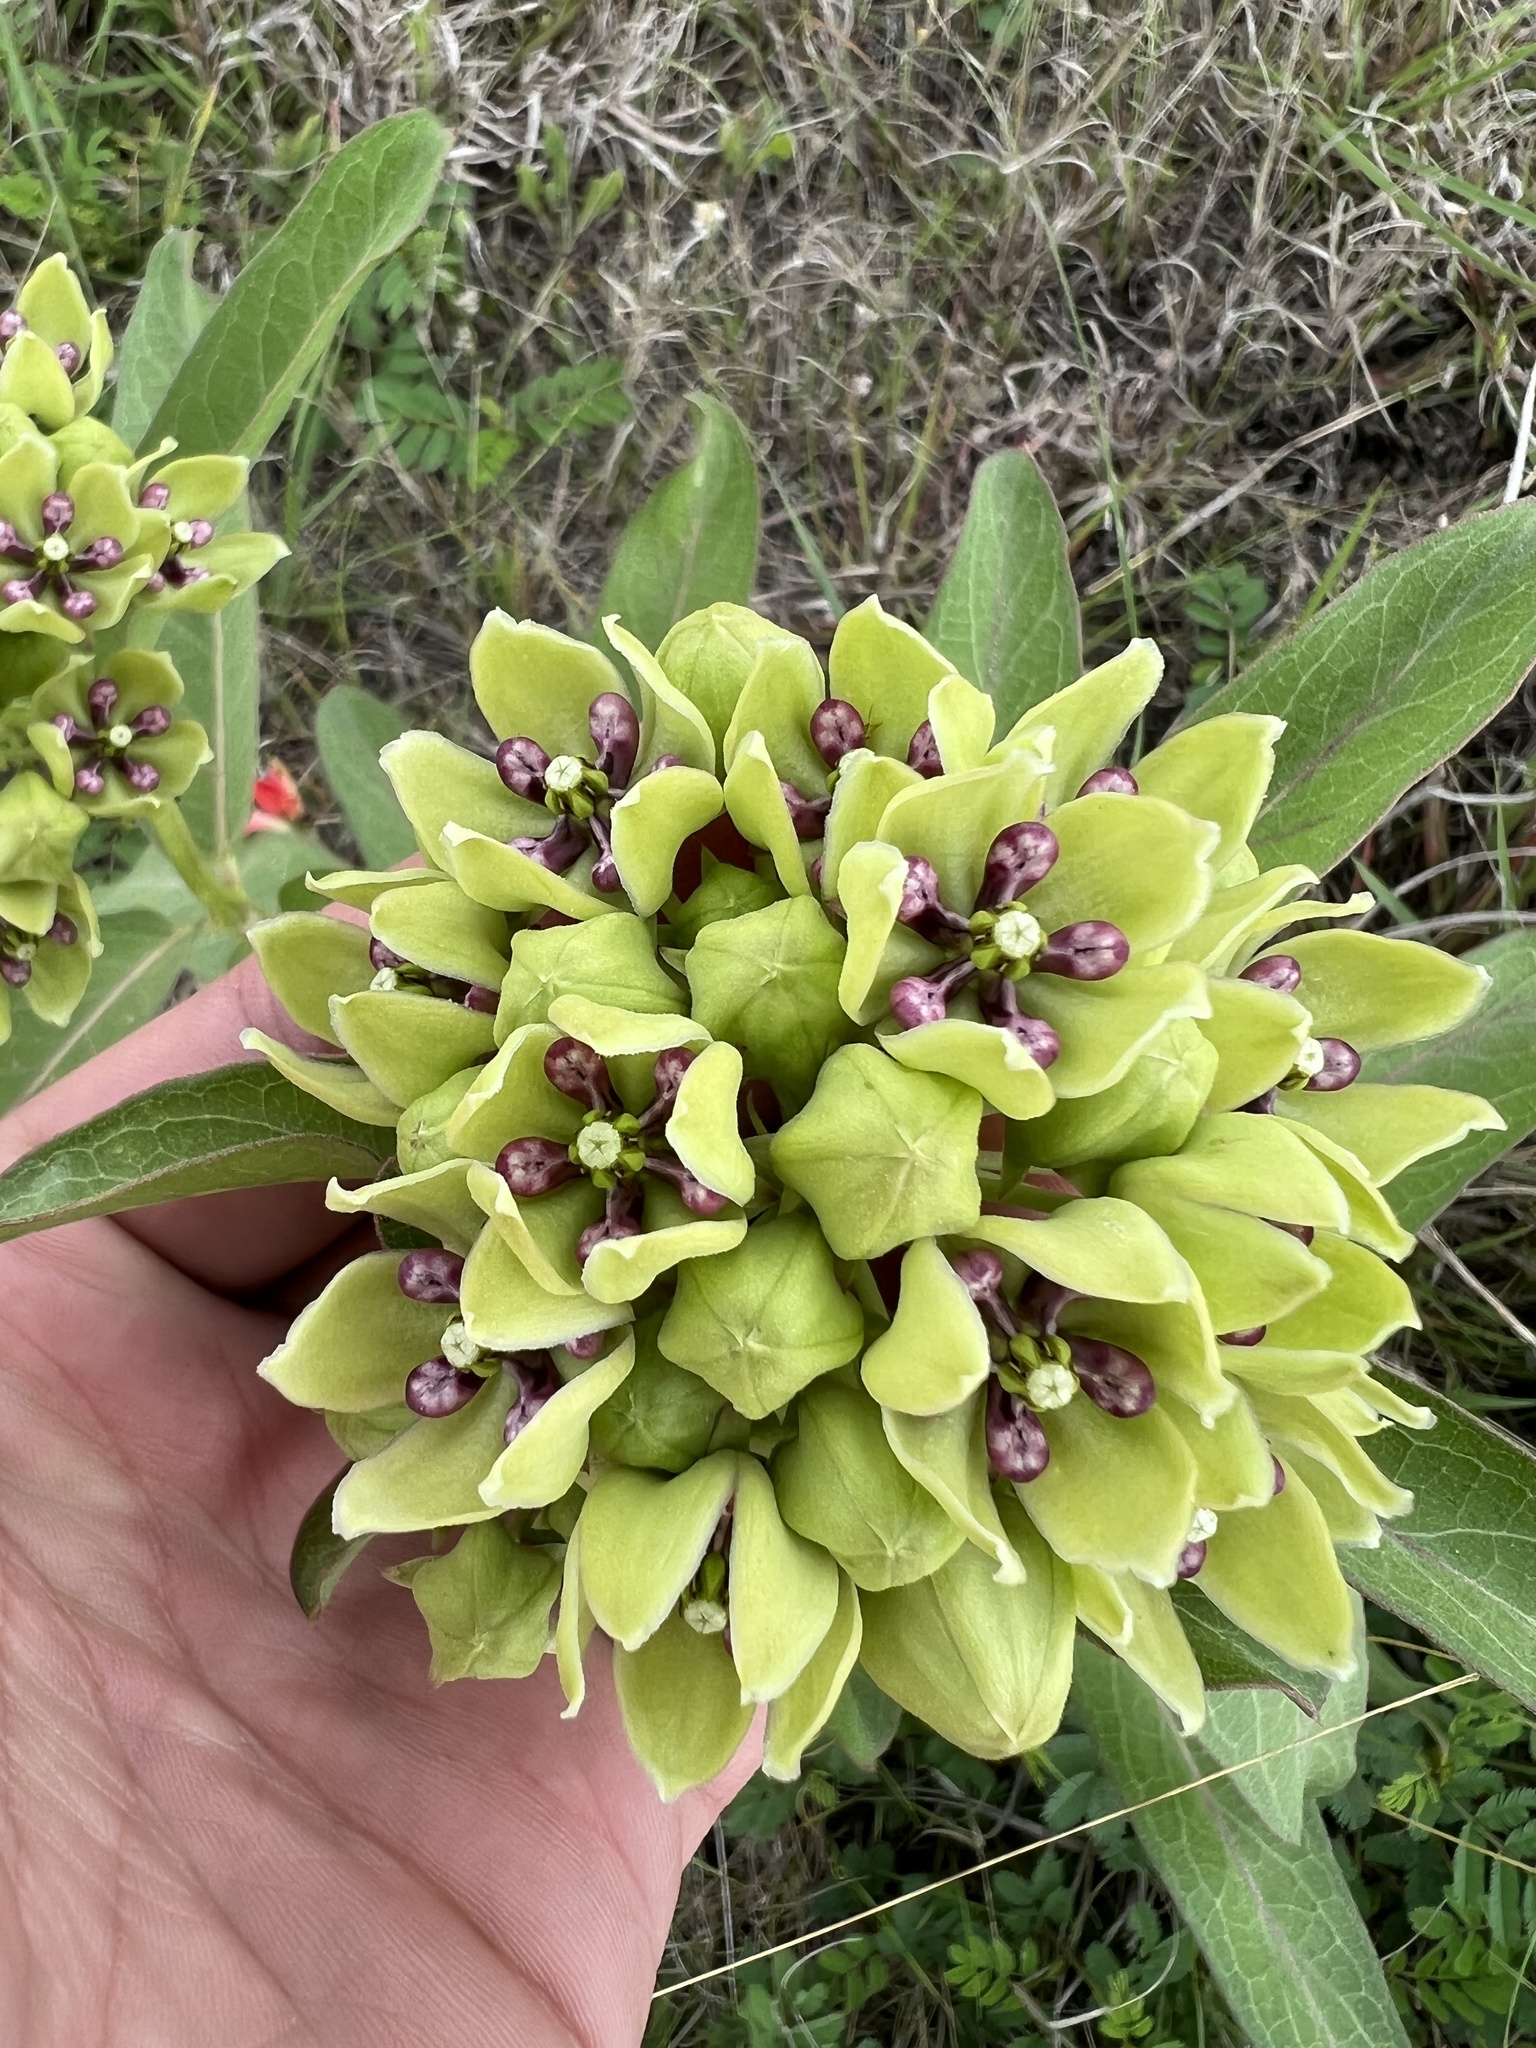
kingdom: Plantae
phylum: Tracheophyta
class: Magnoliopsida
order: Gentianales
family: Apocynaceae
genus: Asclepias
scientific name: Asclepias viridis
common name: Antelope-horns
